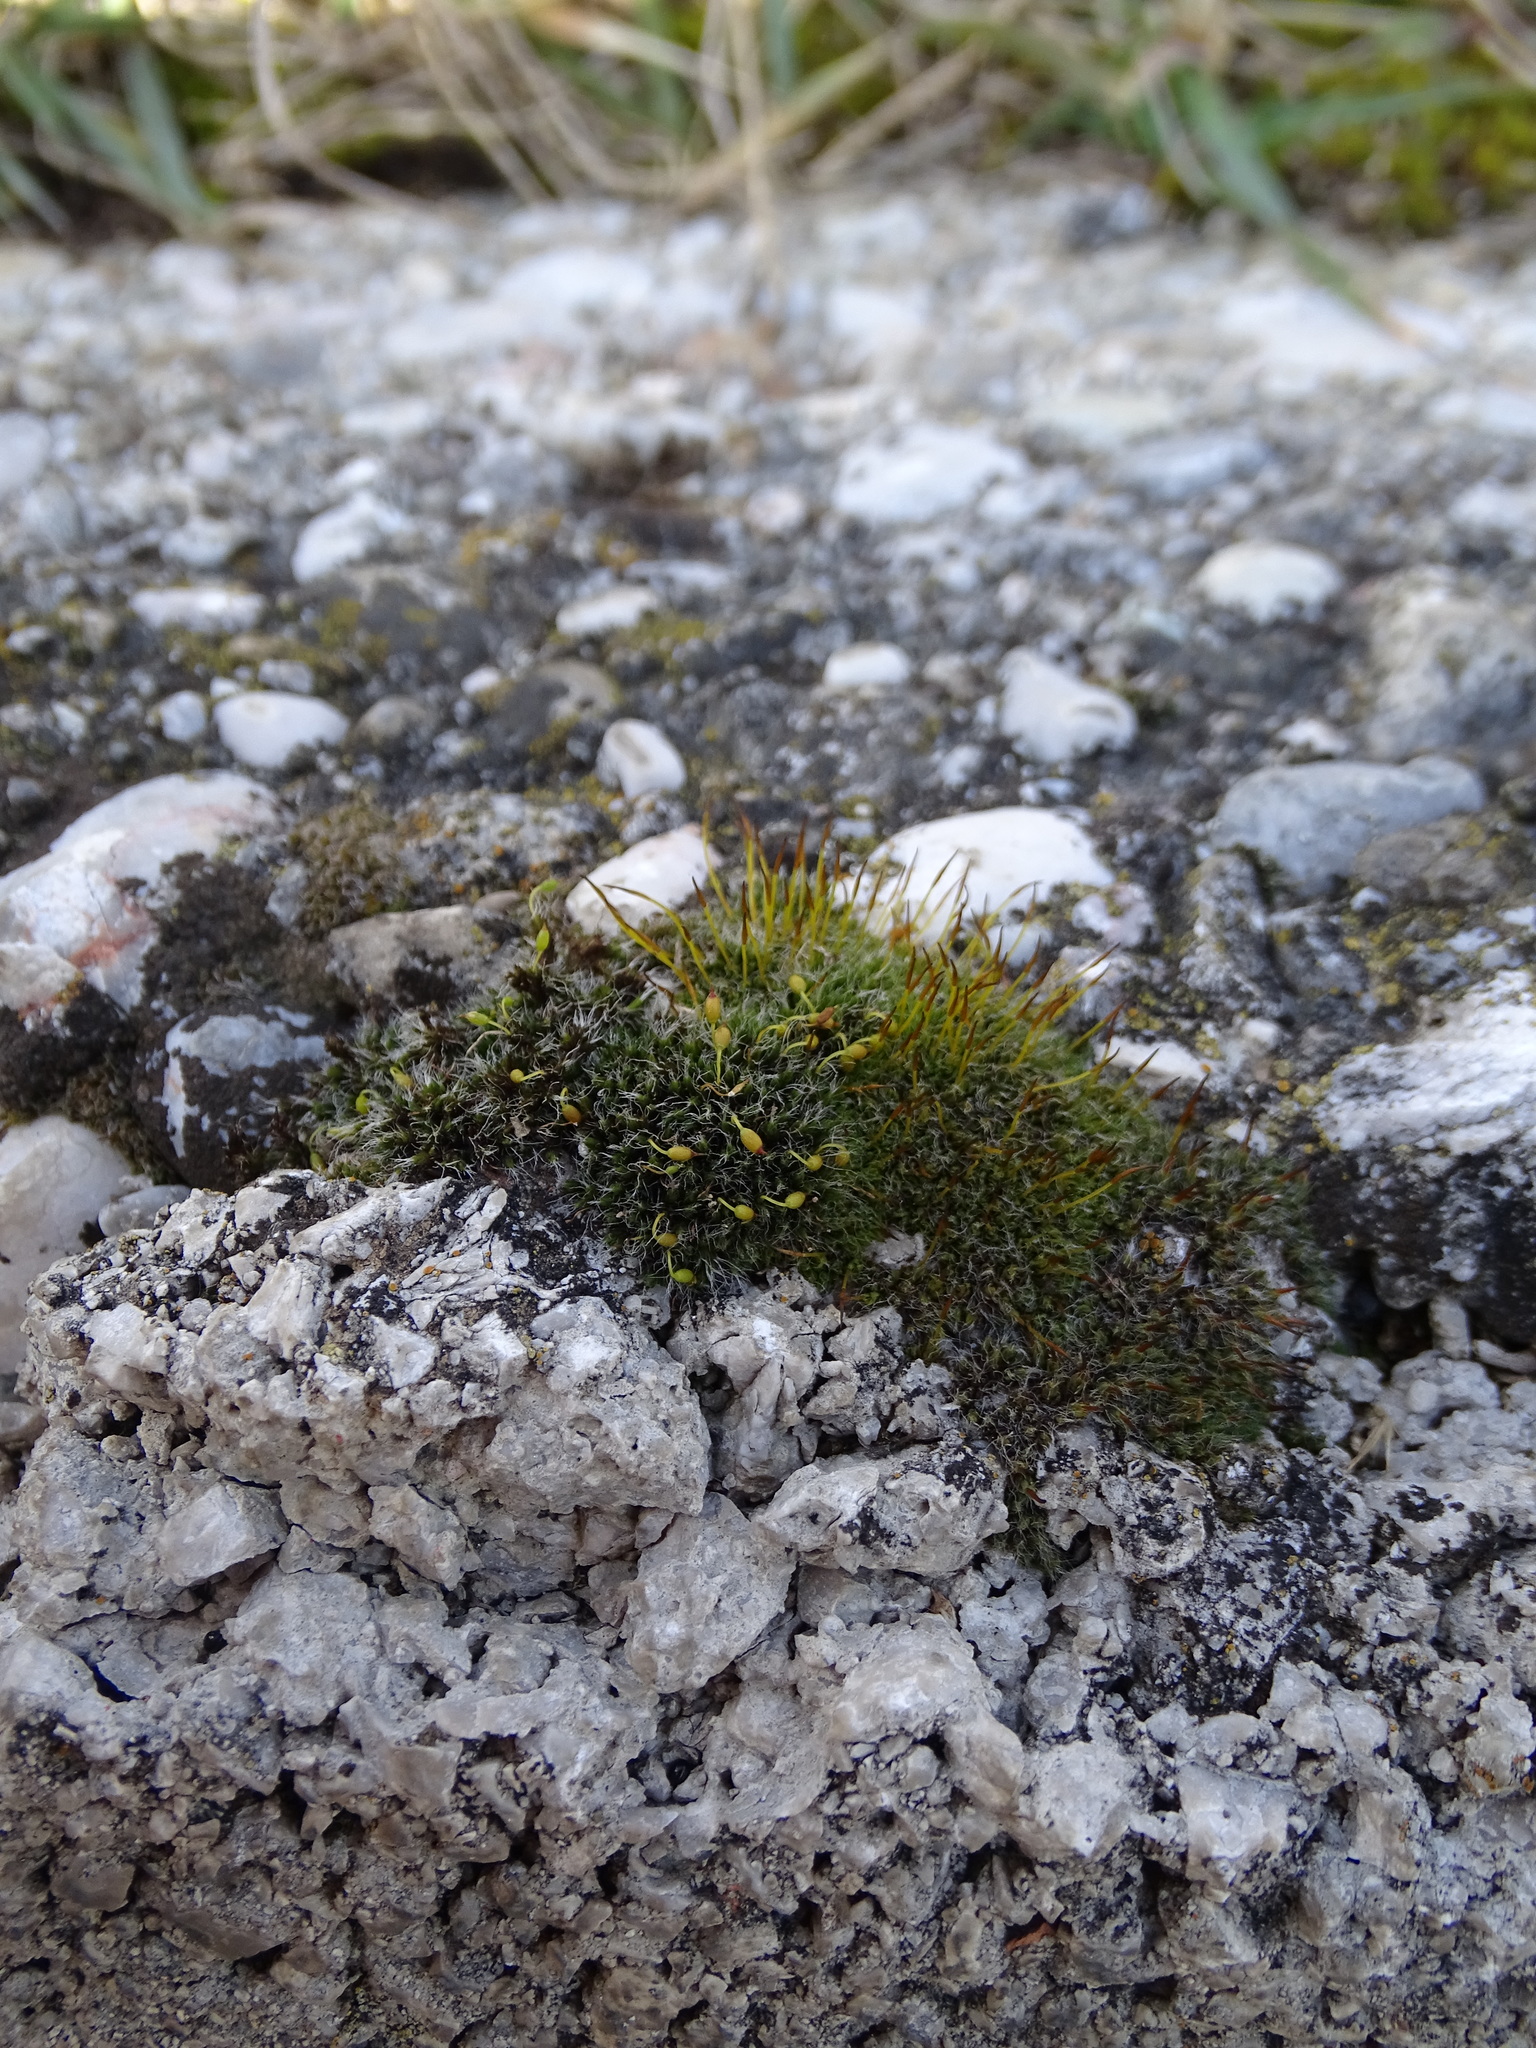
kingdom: Plantae
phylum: Bryophyta
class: Bryopsida
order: Grimmiales
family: Grimmiaceae
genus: Grimmia
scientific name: Grimmia pulvinata
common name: Grey-cushioned grimmia
